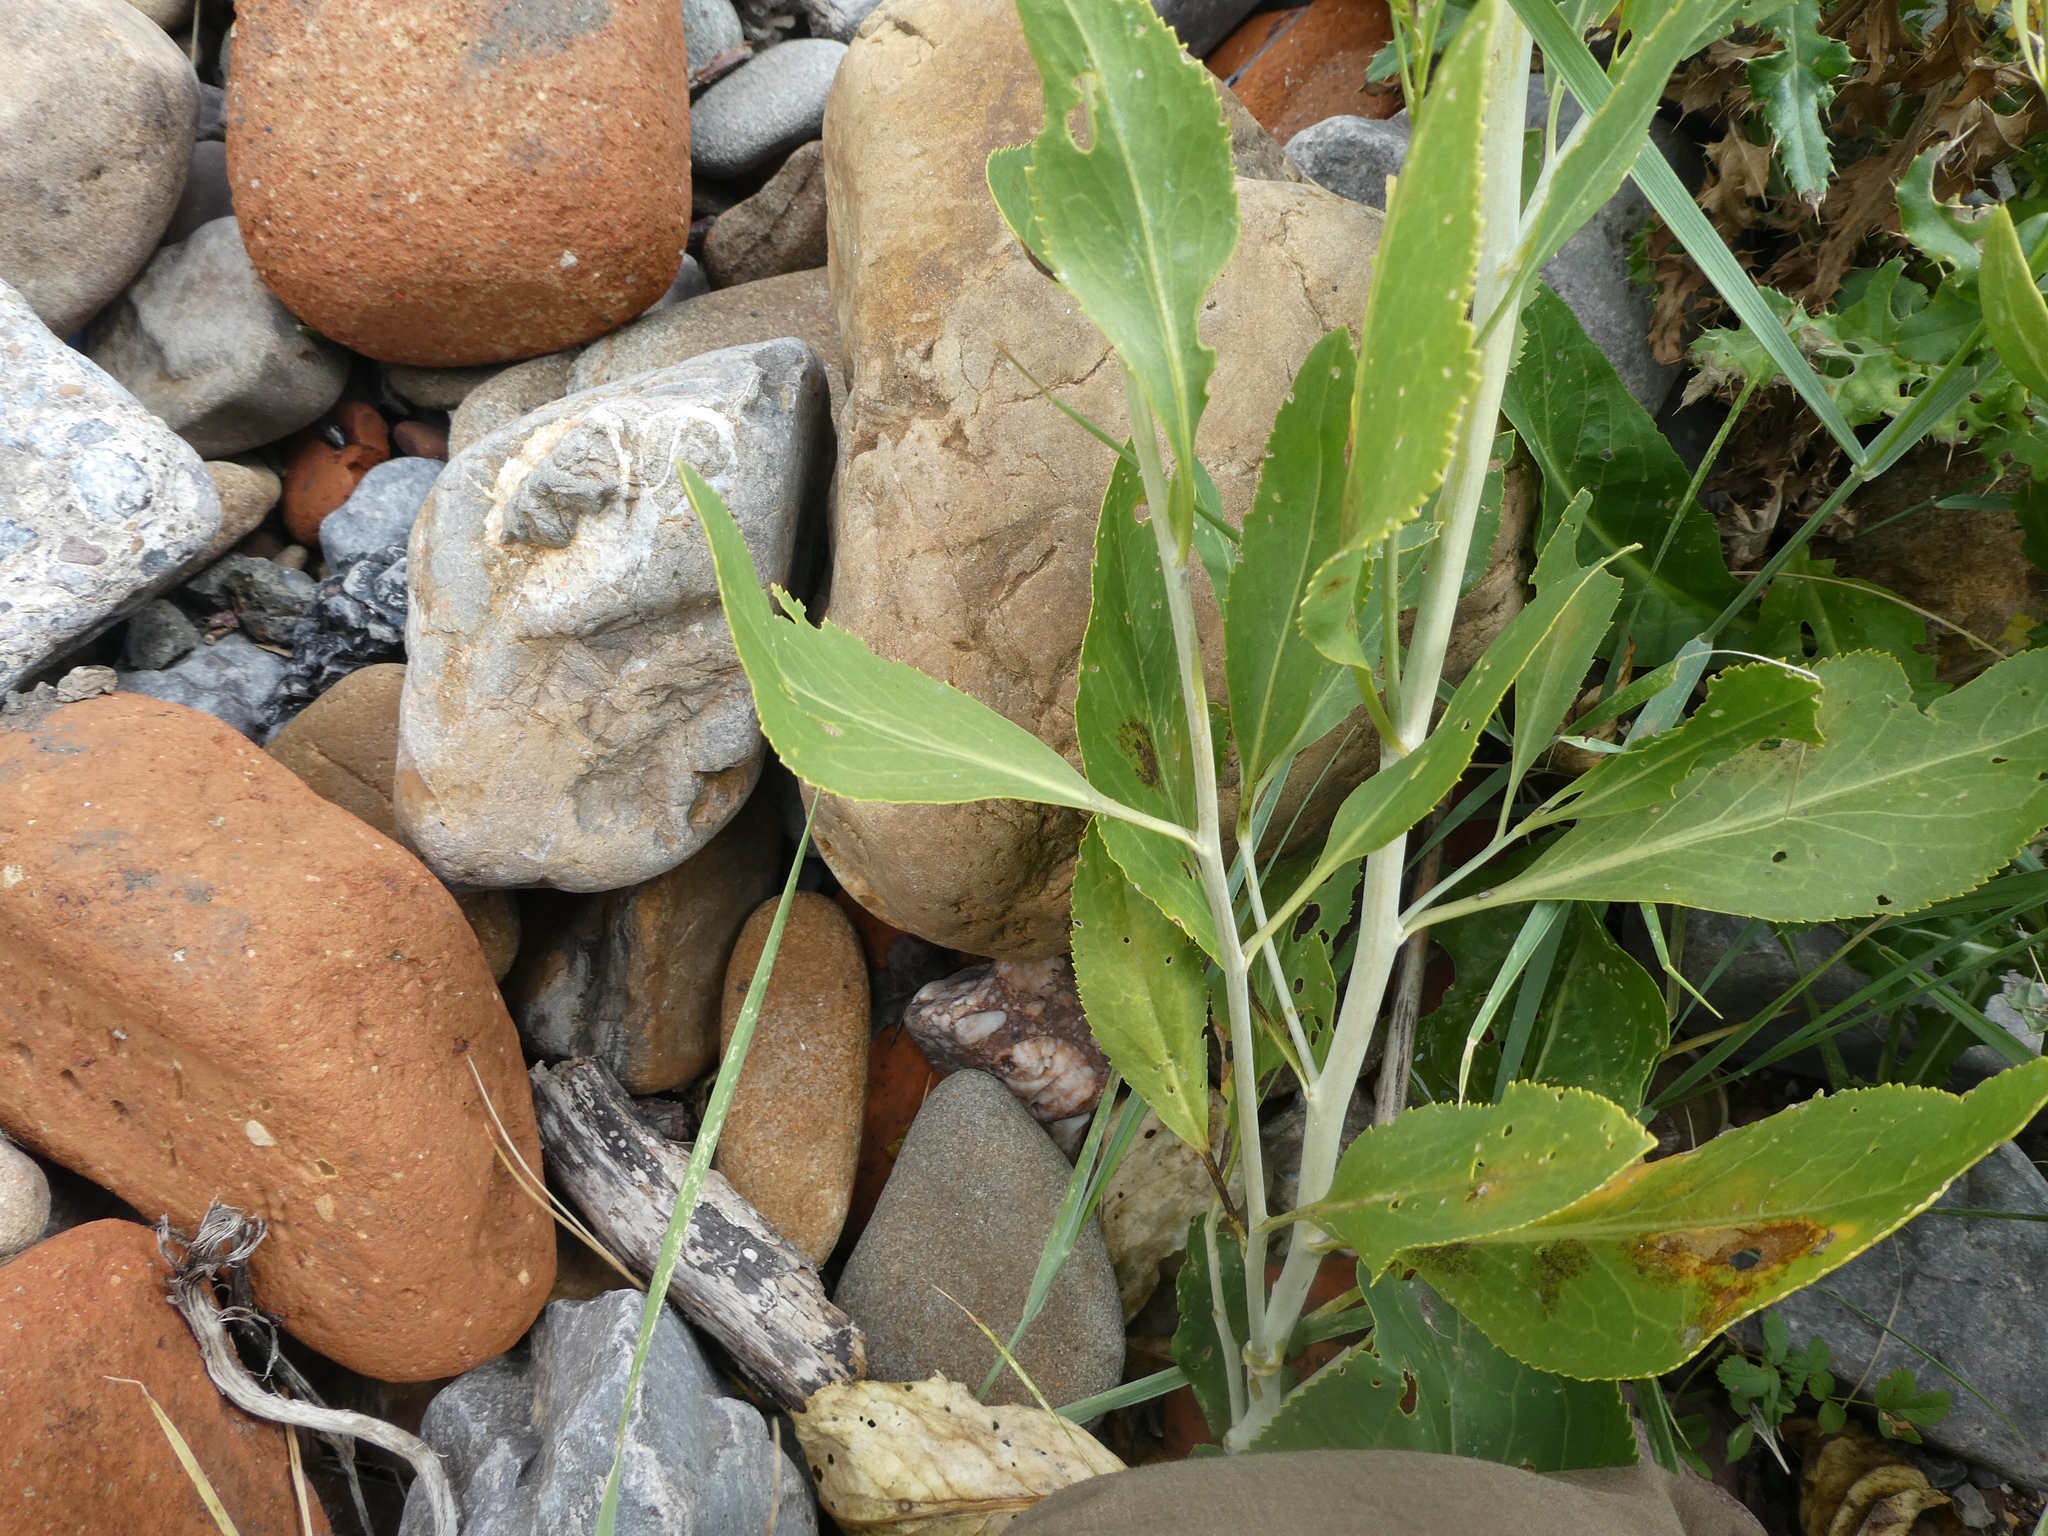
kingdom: Plantae
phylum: Tracheophyta
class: Magnoliopsida
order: Brassicales
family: Brassicaceae
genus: Lepidium
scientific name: Lepidium latifolium
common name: Dittander
